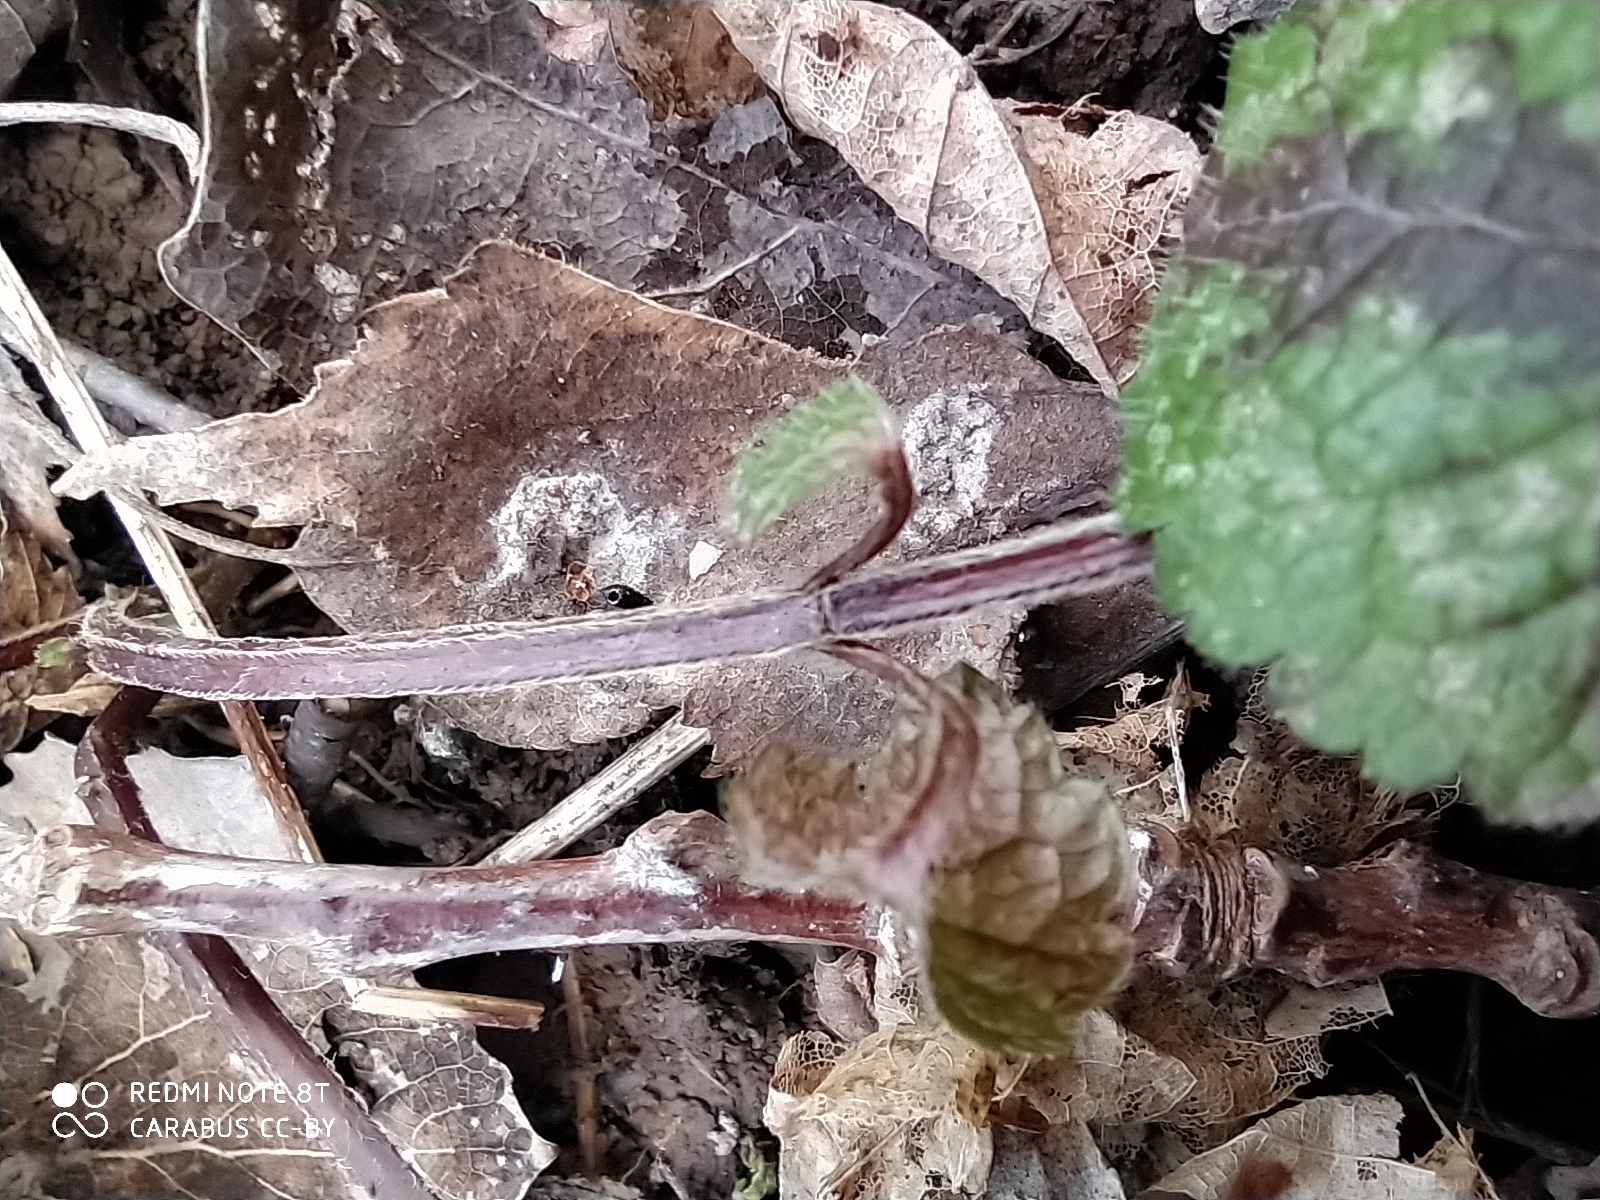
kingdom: Plantae
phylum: Tracheophyta
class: Magnoliopsida
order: Lamiales
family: Lamiaceae
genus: Lamium
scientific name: Lamium galeobdolon
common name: Yellow archangel
